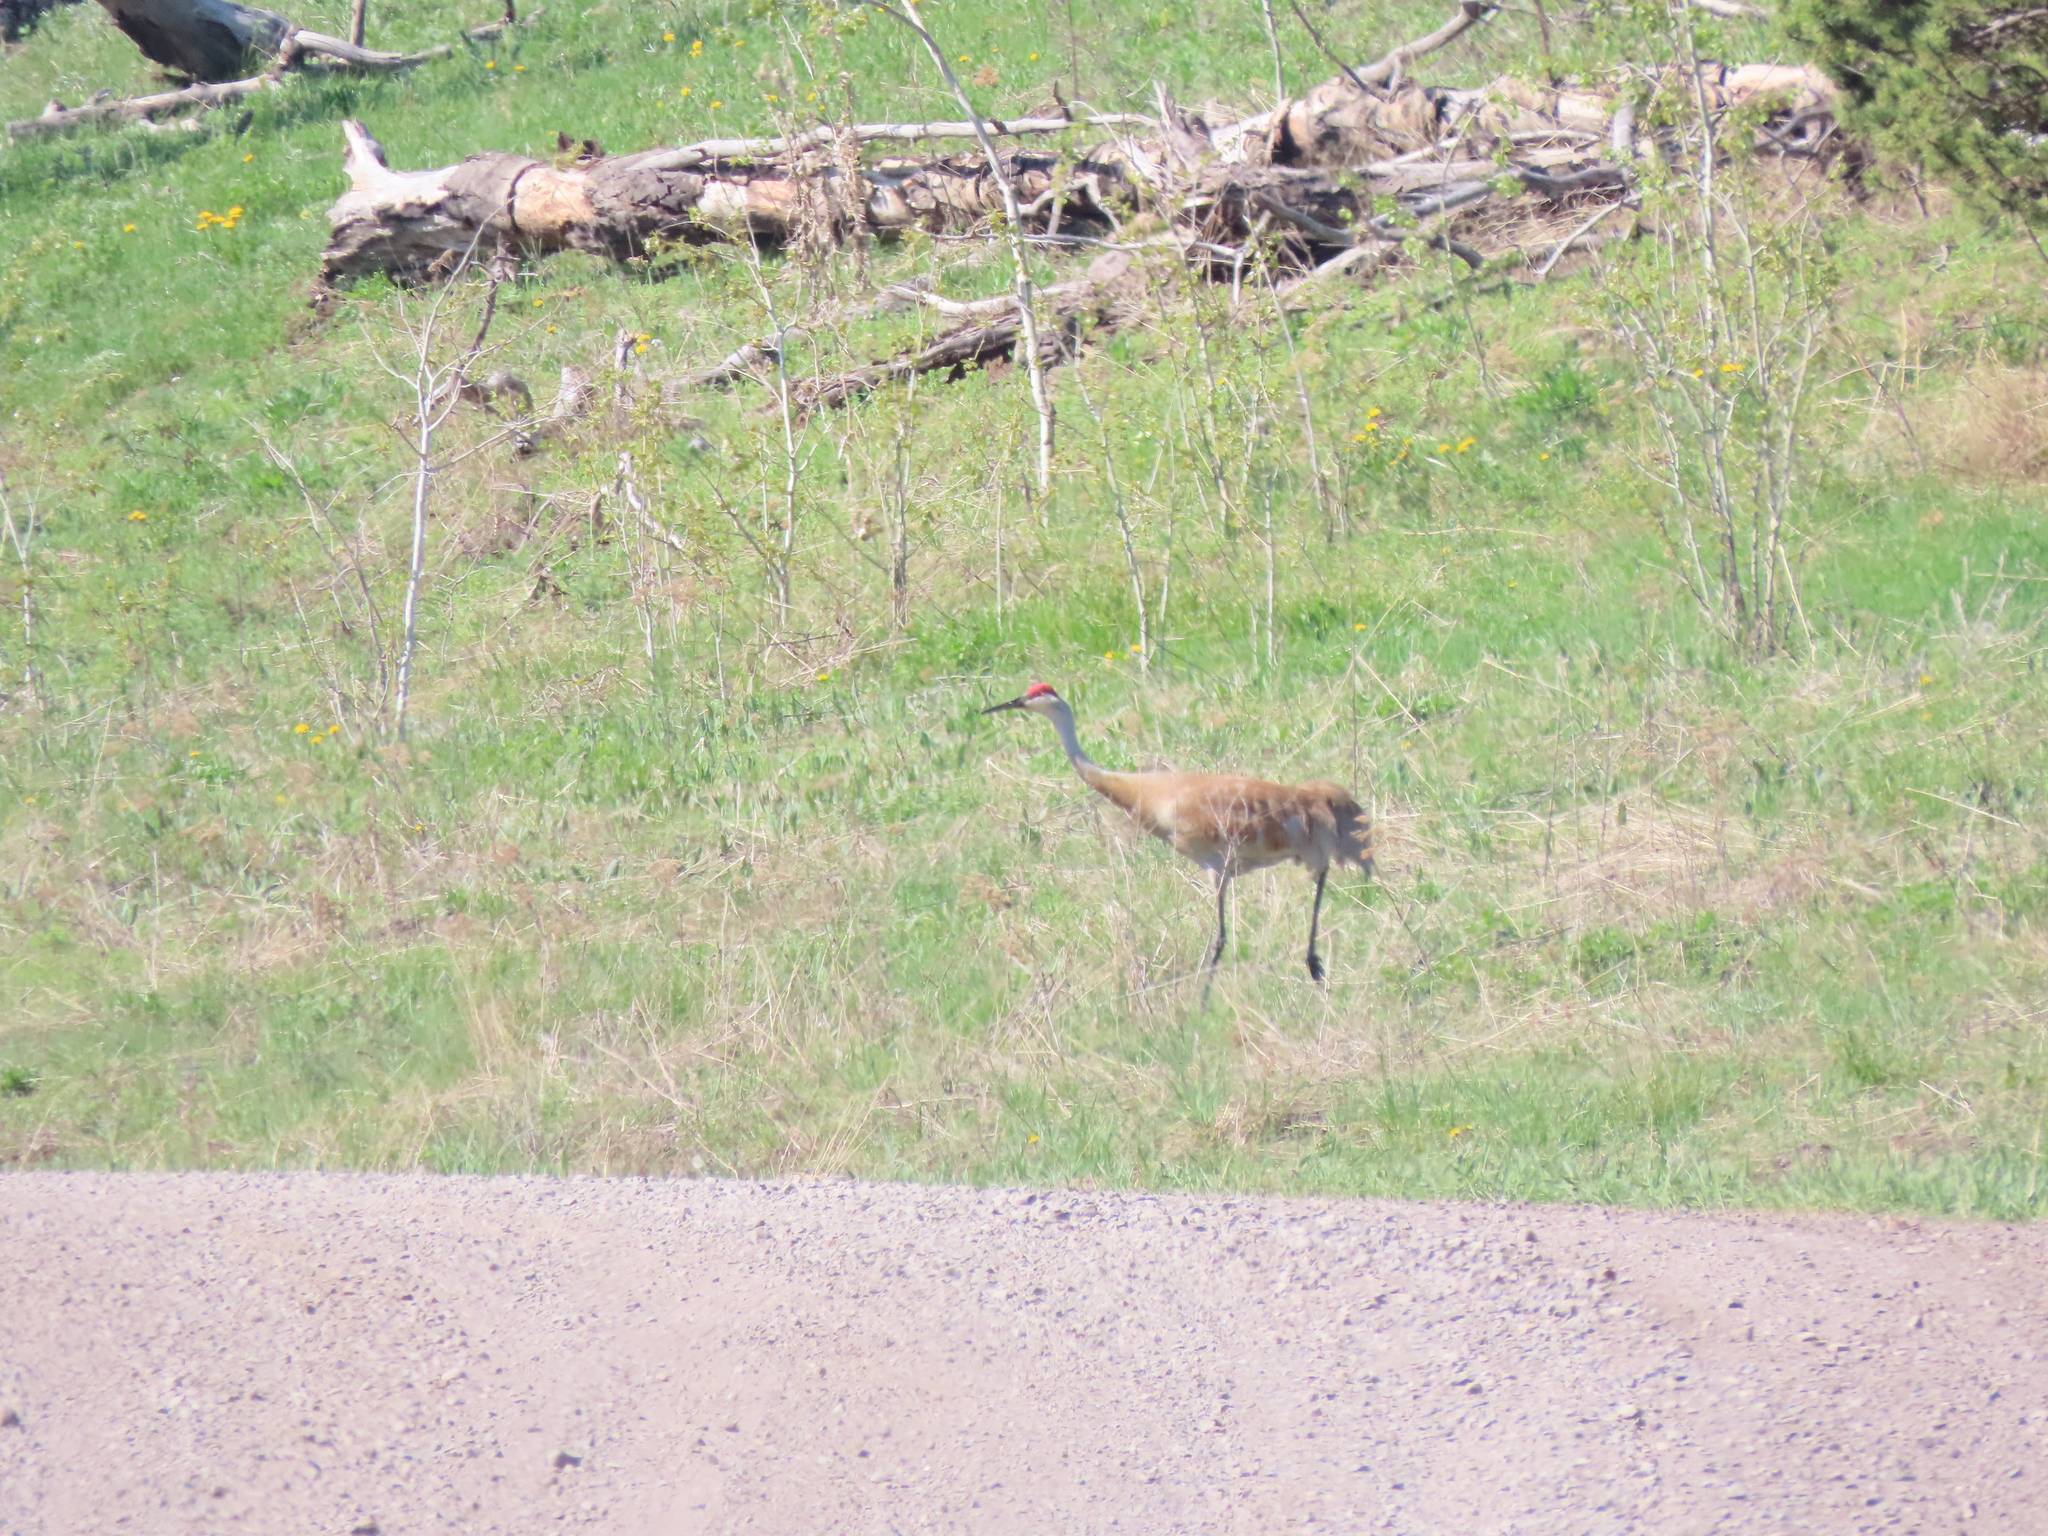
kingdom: Animalia
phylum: Chordata
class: Aves
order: Gruiformes
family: Gruidae
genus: Grus
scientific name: Grus canadensis
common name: Sandhill crane
